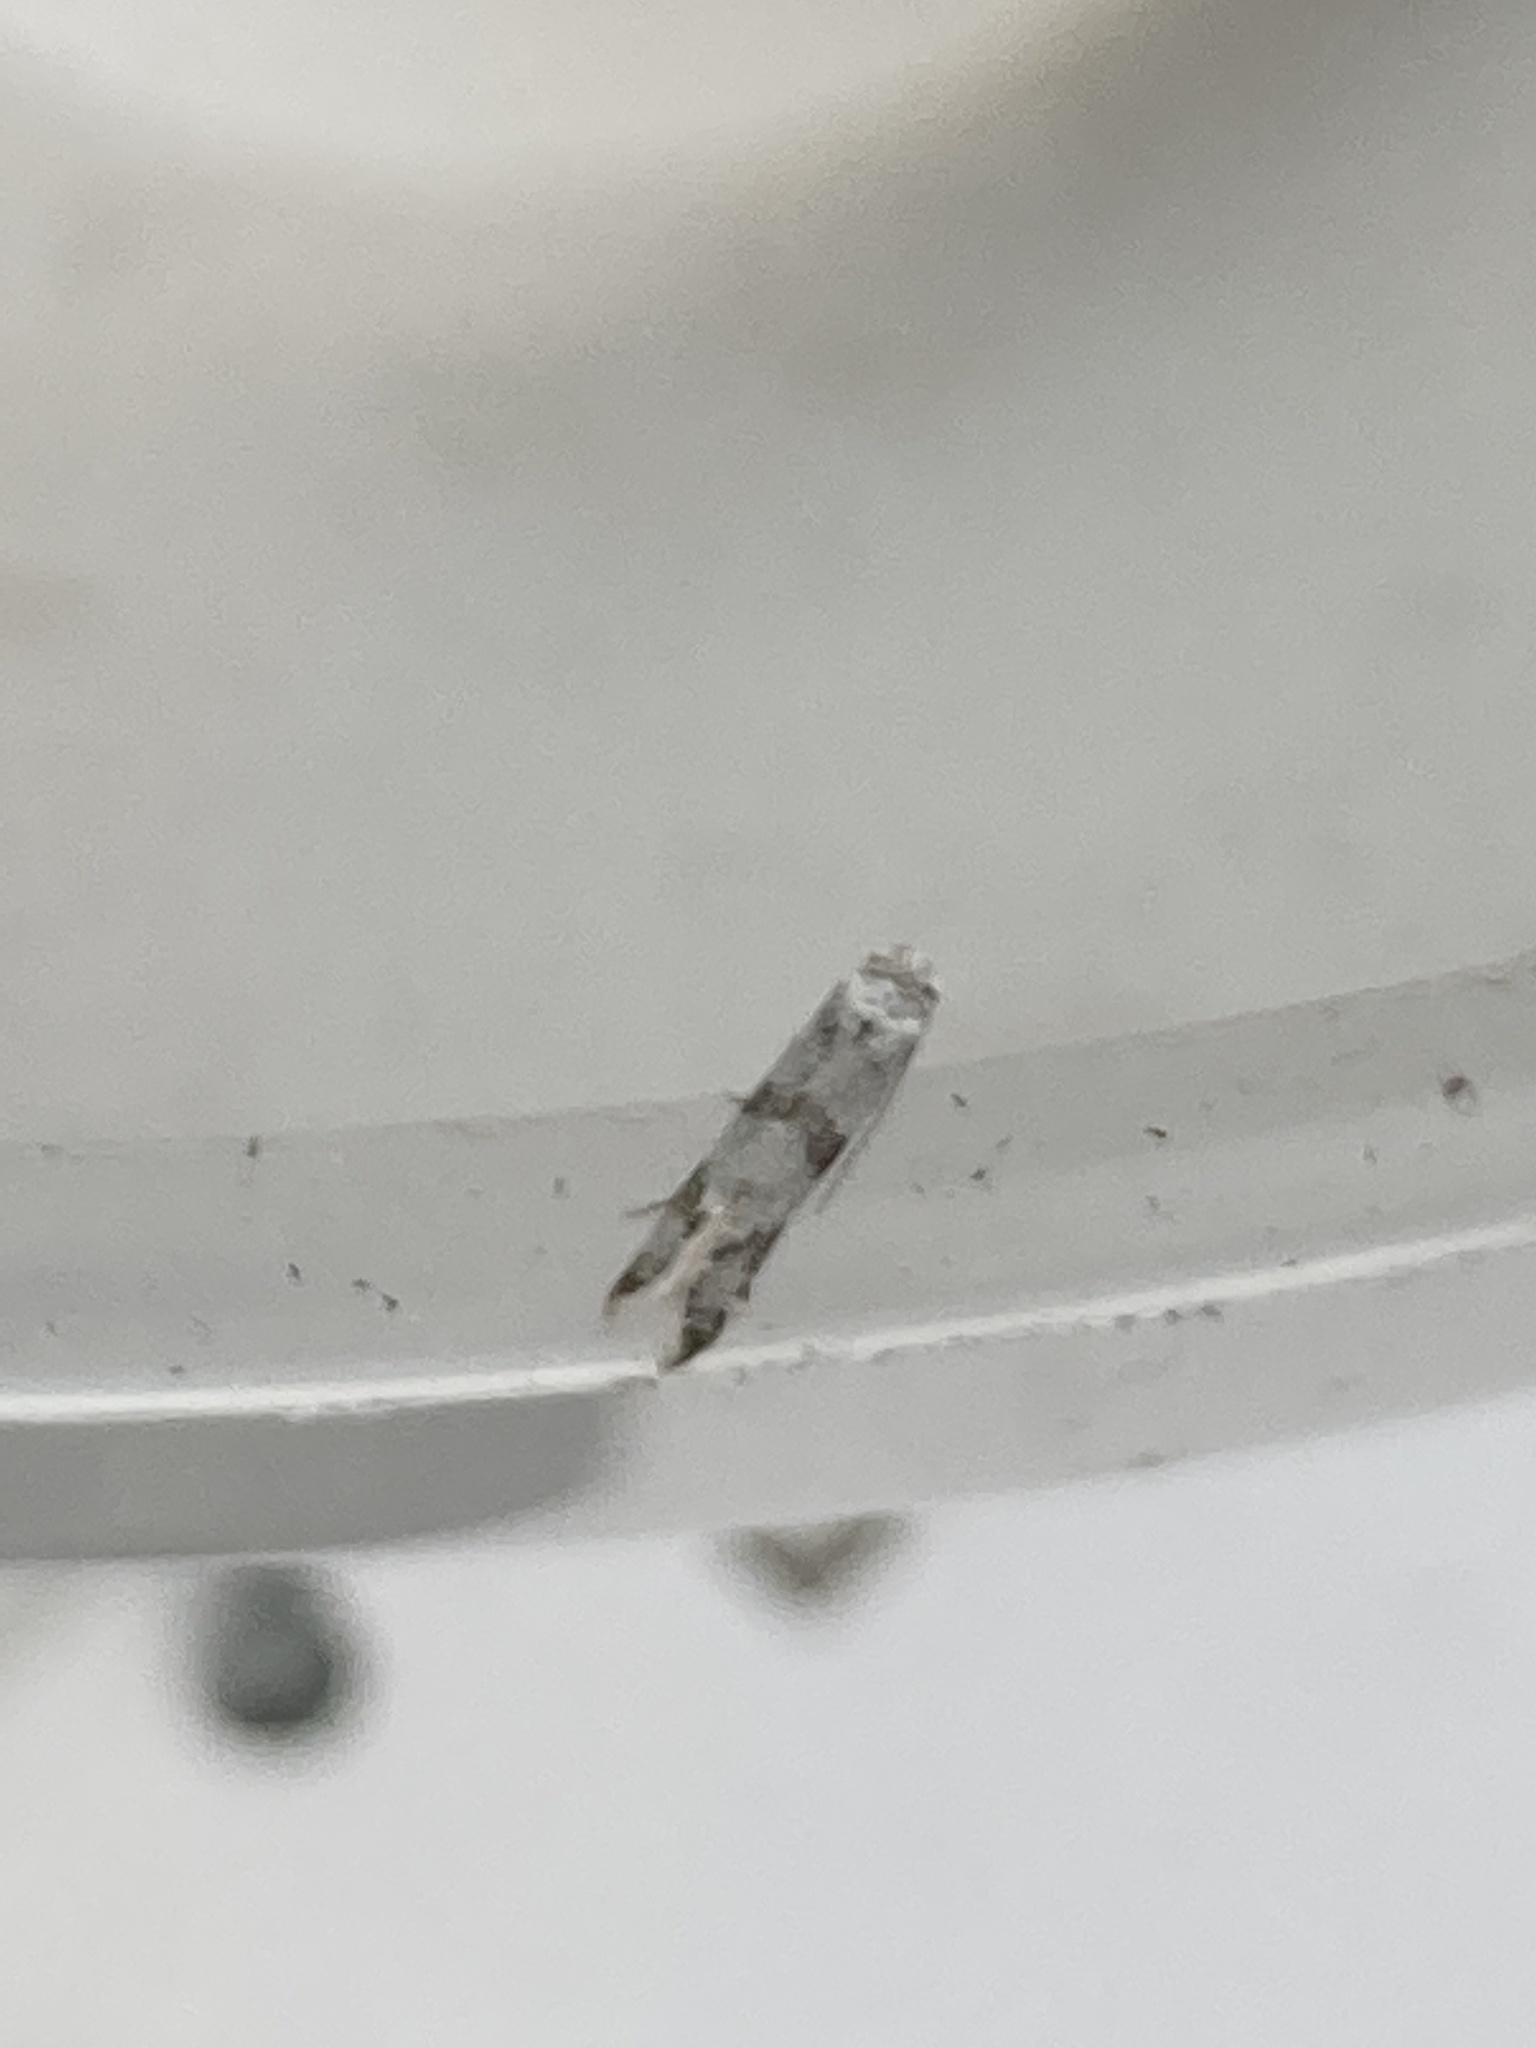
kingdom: Animalia
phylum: Arthropoda
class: Insecta
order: Lepidoptera
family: Yponomeutidae
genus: Scythropia
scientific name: Scythropia crataegella
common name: Hawthorn moth
